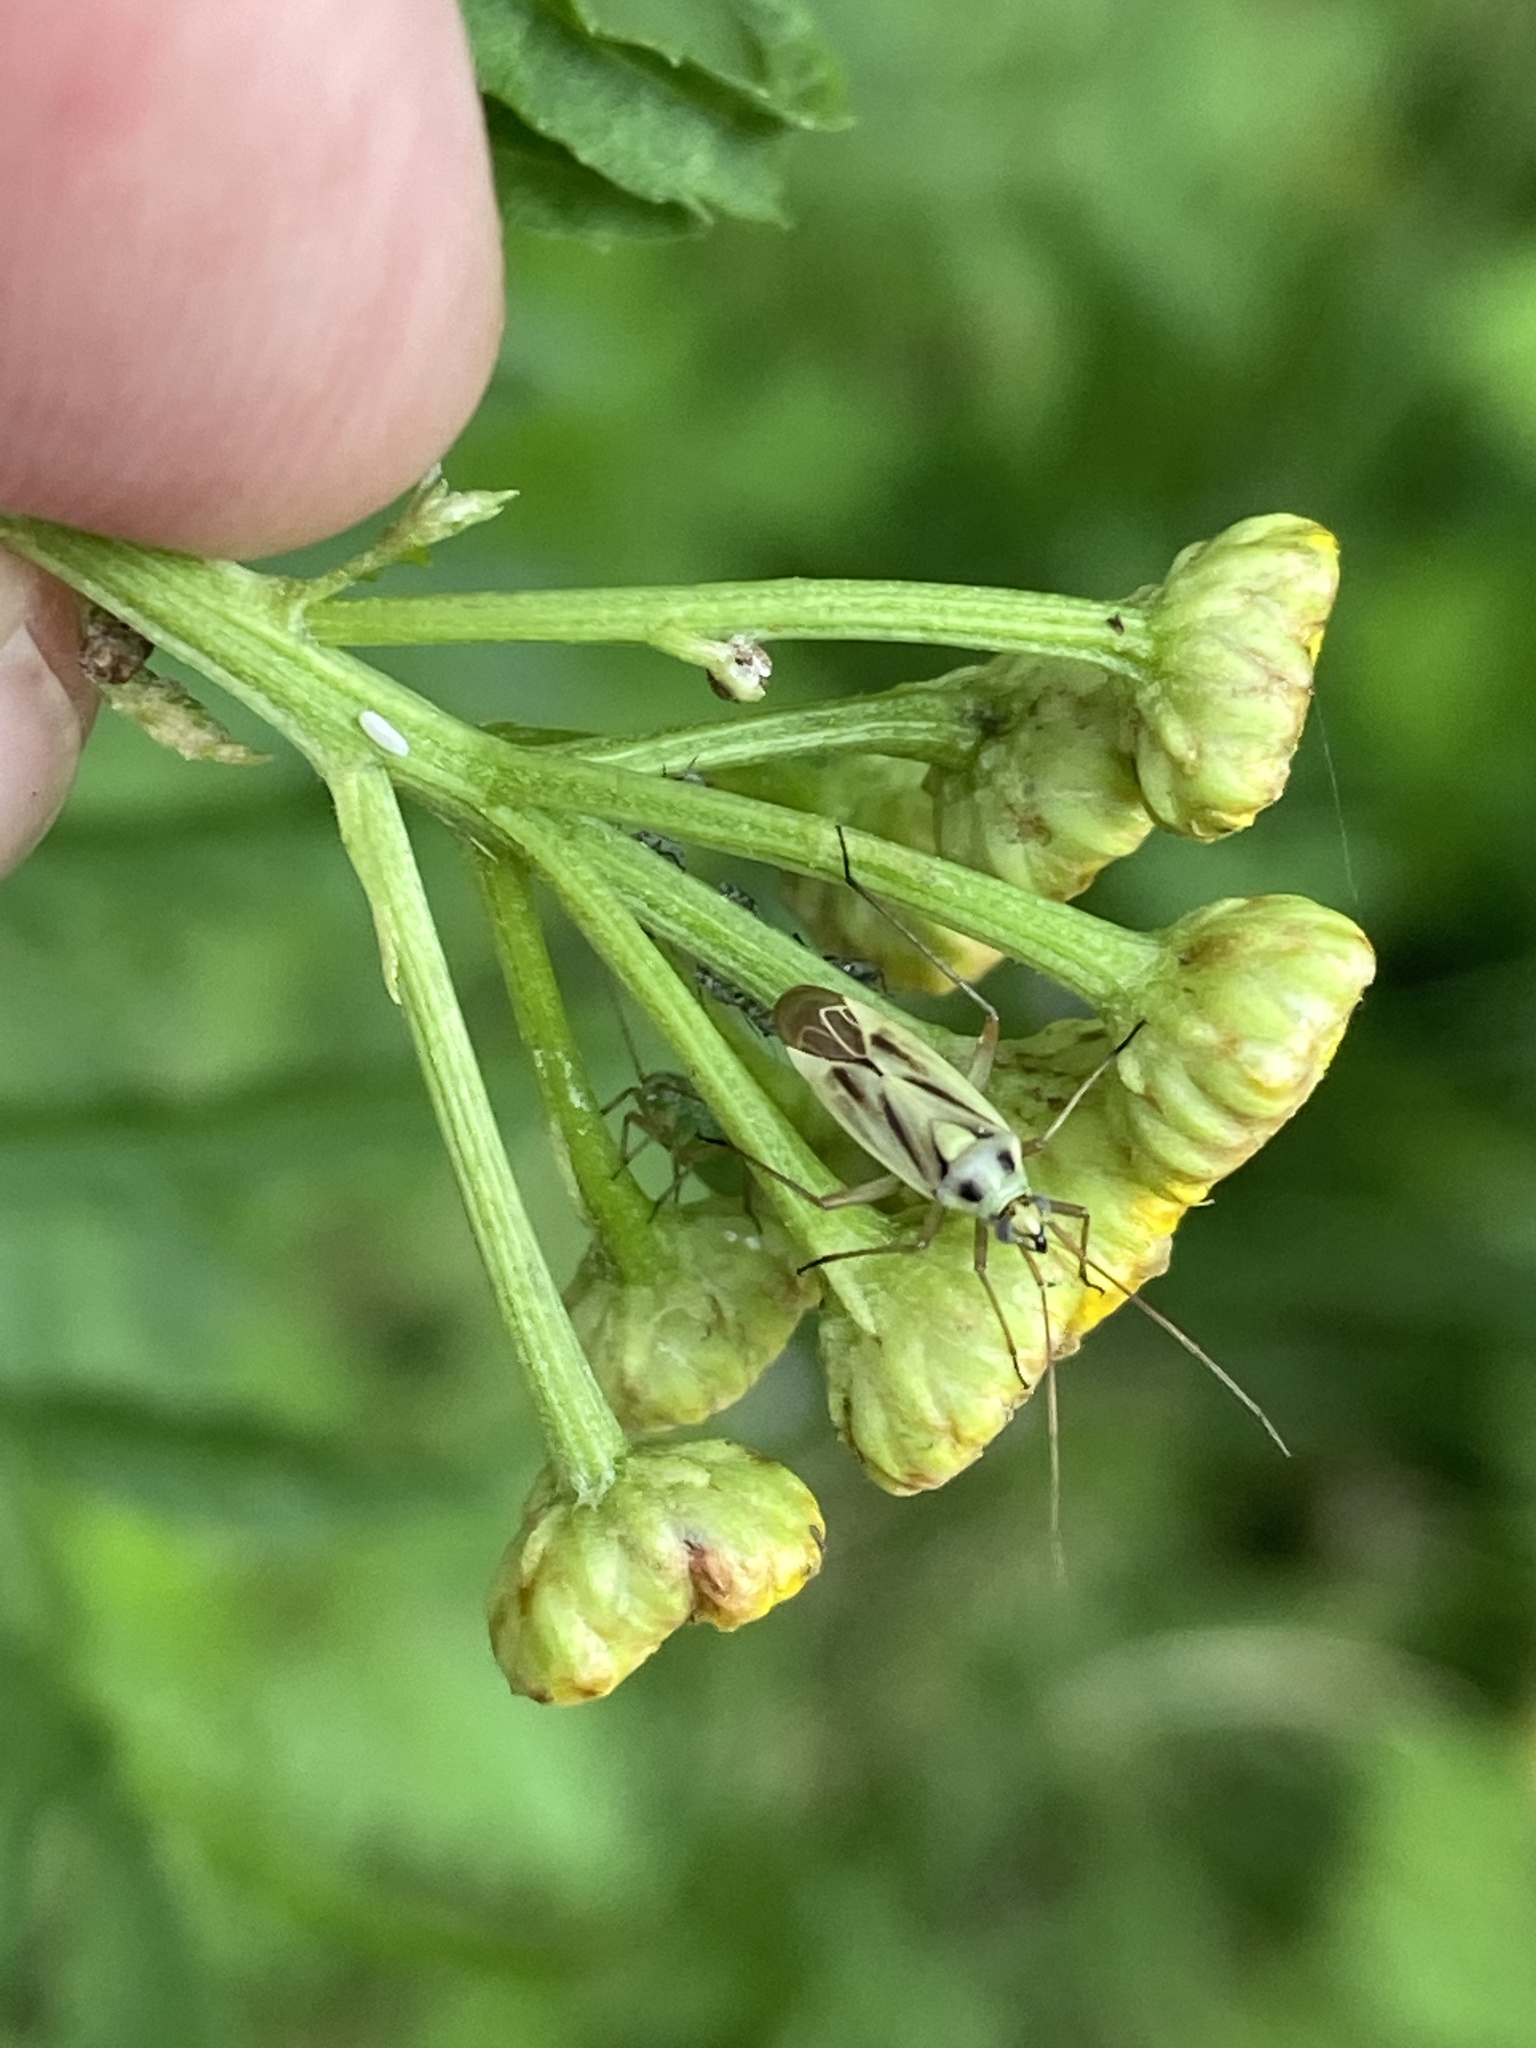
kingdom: Animalia
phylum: Arthropoda
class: Insecta
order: Hemiptera
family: Miridae
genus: Stenotus
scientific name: Stenotus binotatus
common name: Plant bug
